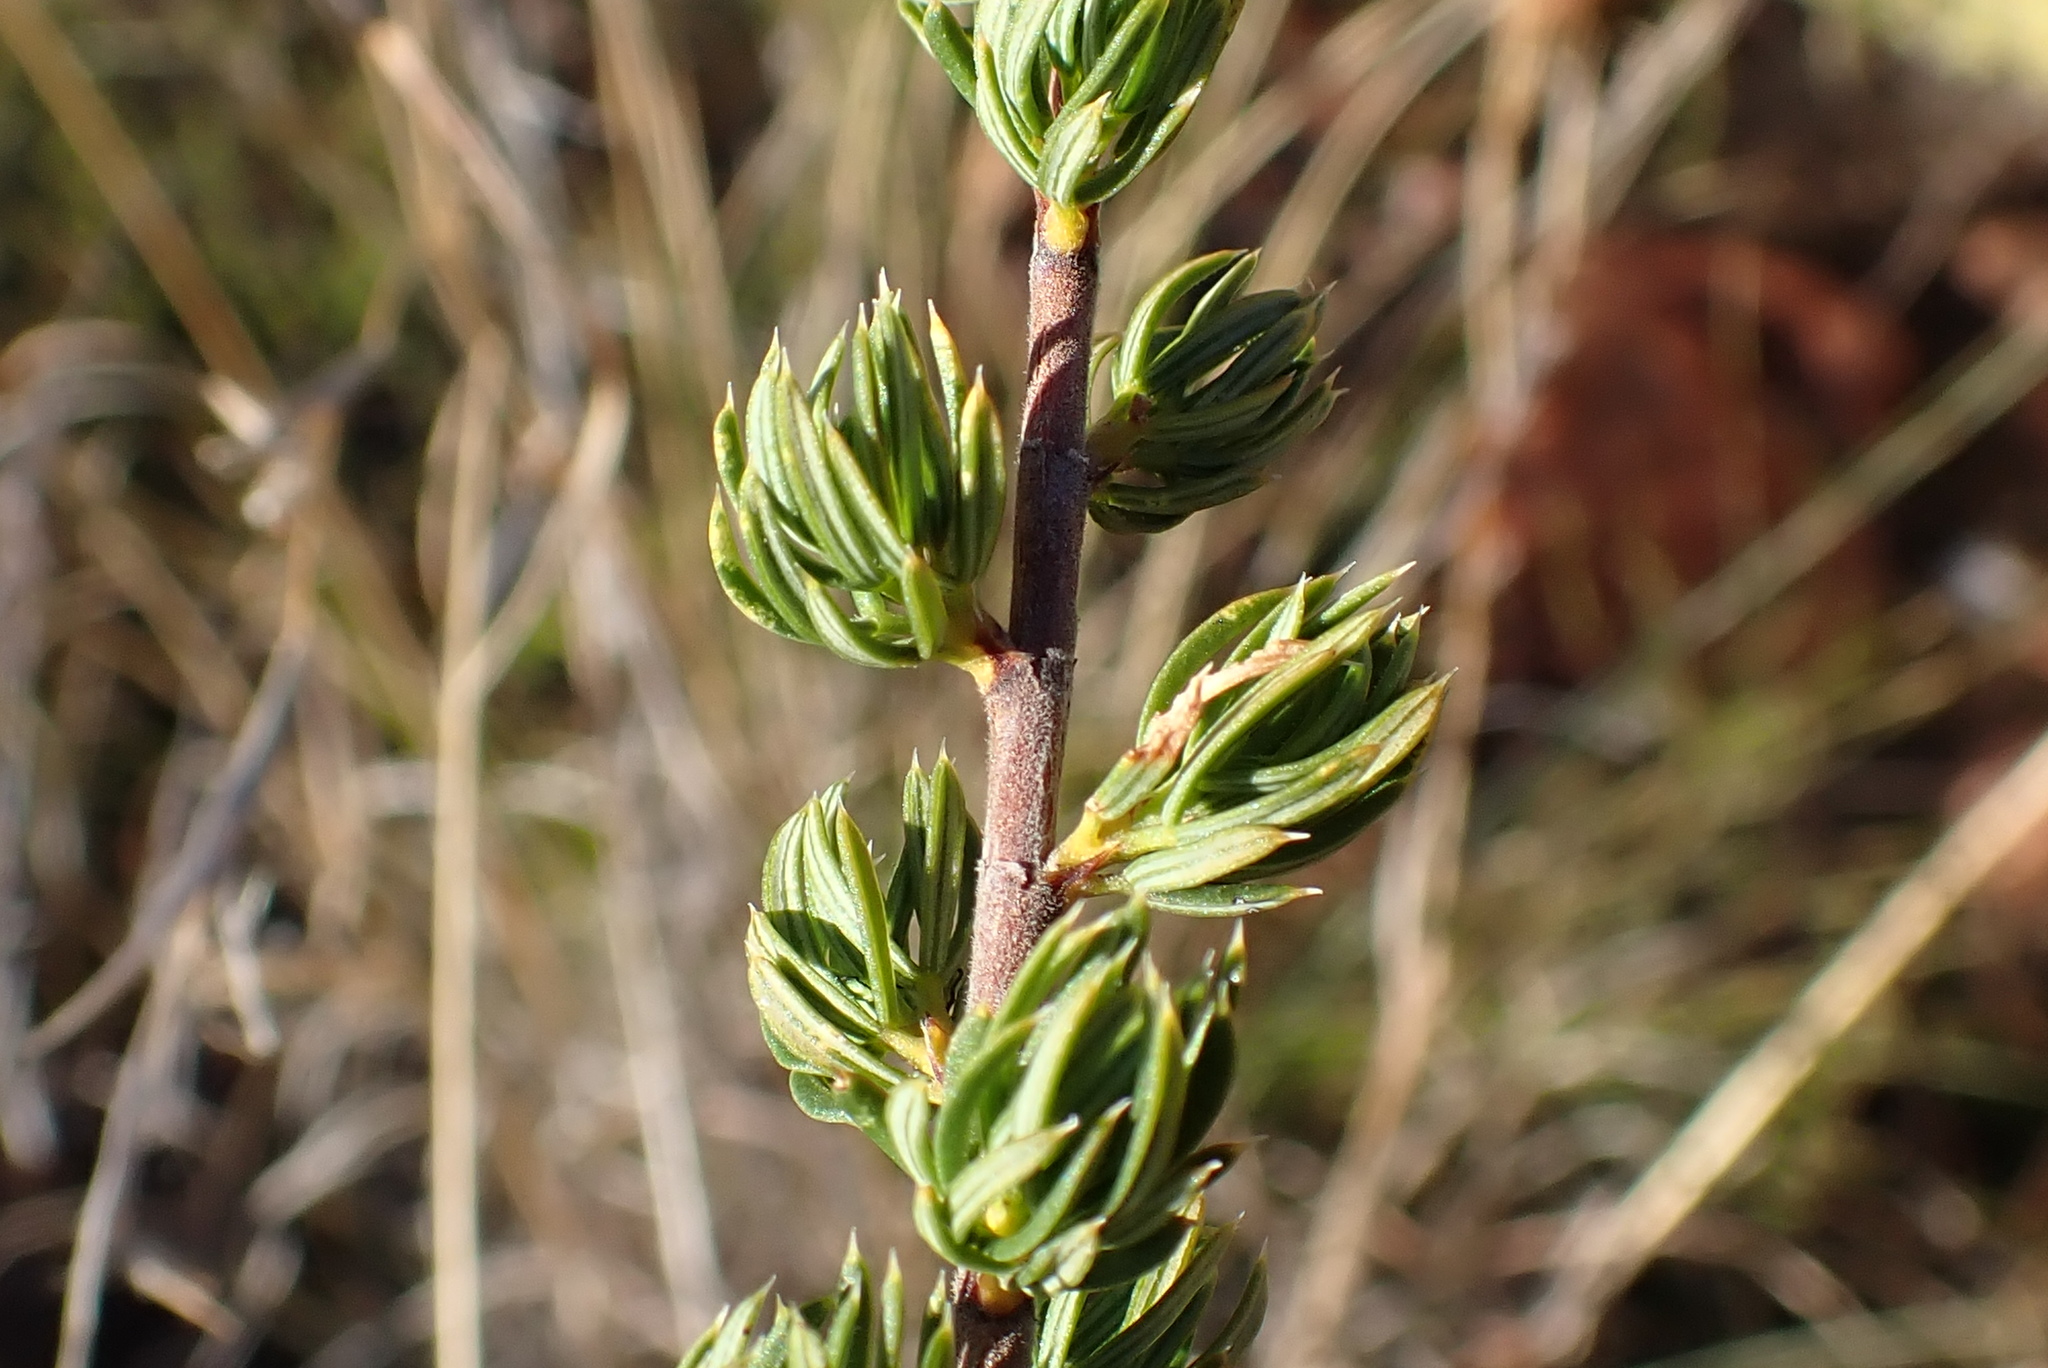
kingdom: Plantae
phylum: Tracheophyta
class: Magnoliopsida
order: Rosales
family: Rosaceae
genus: Cliffortia
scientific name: Cliffortia arcuata
